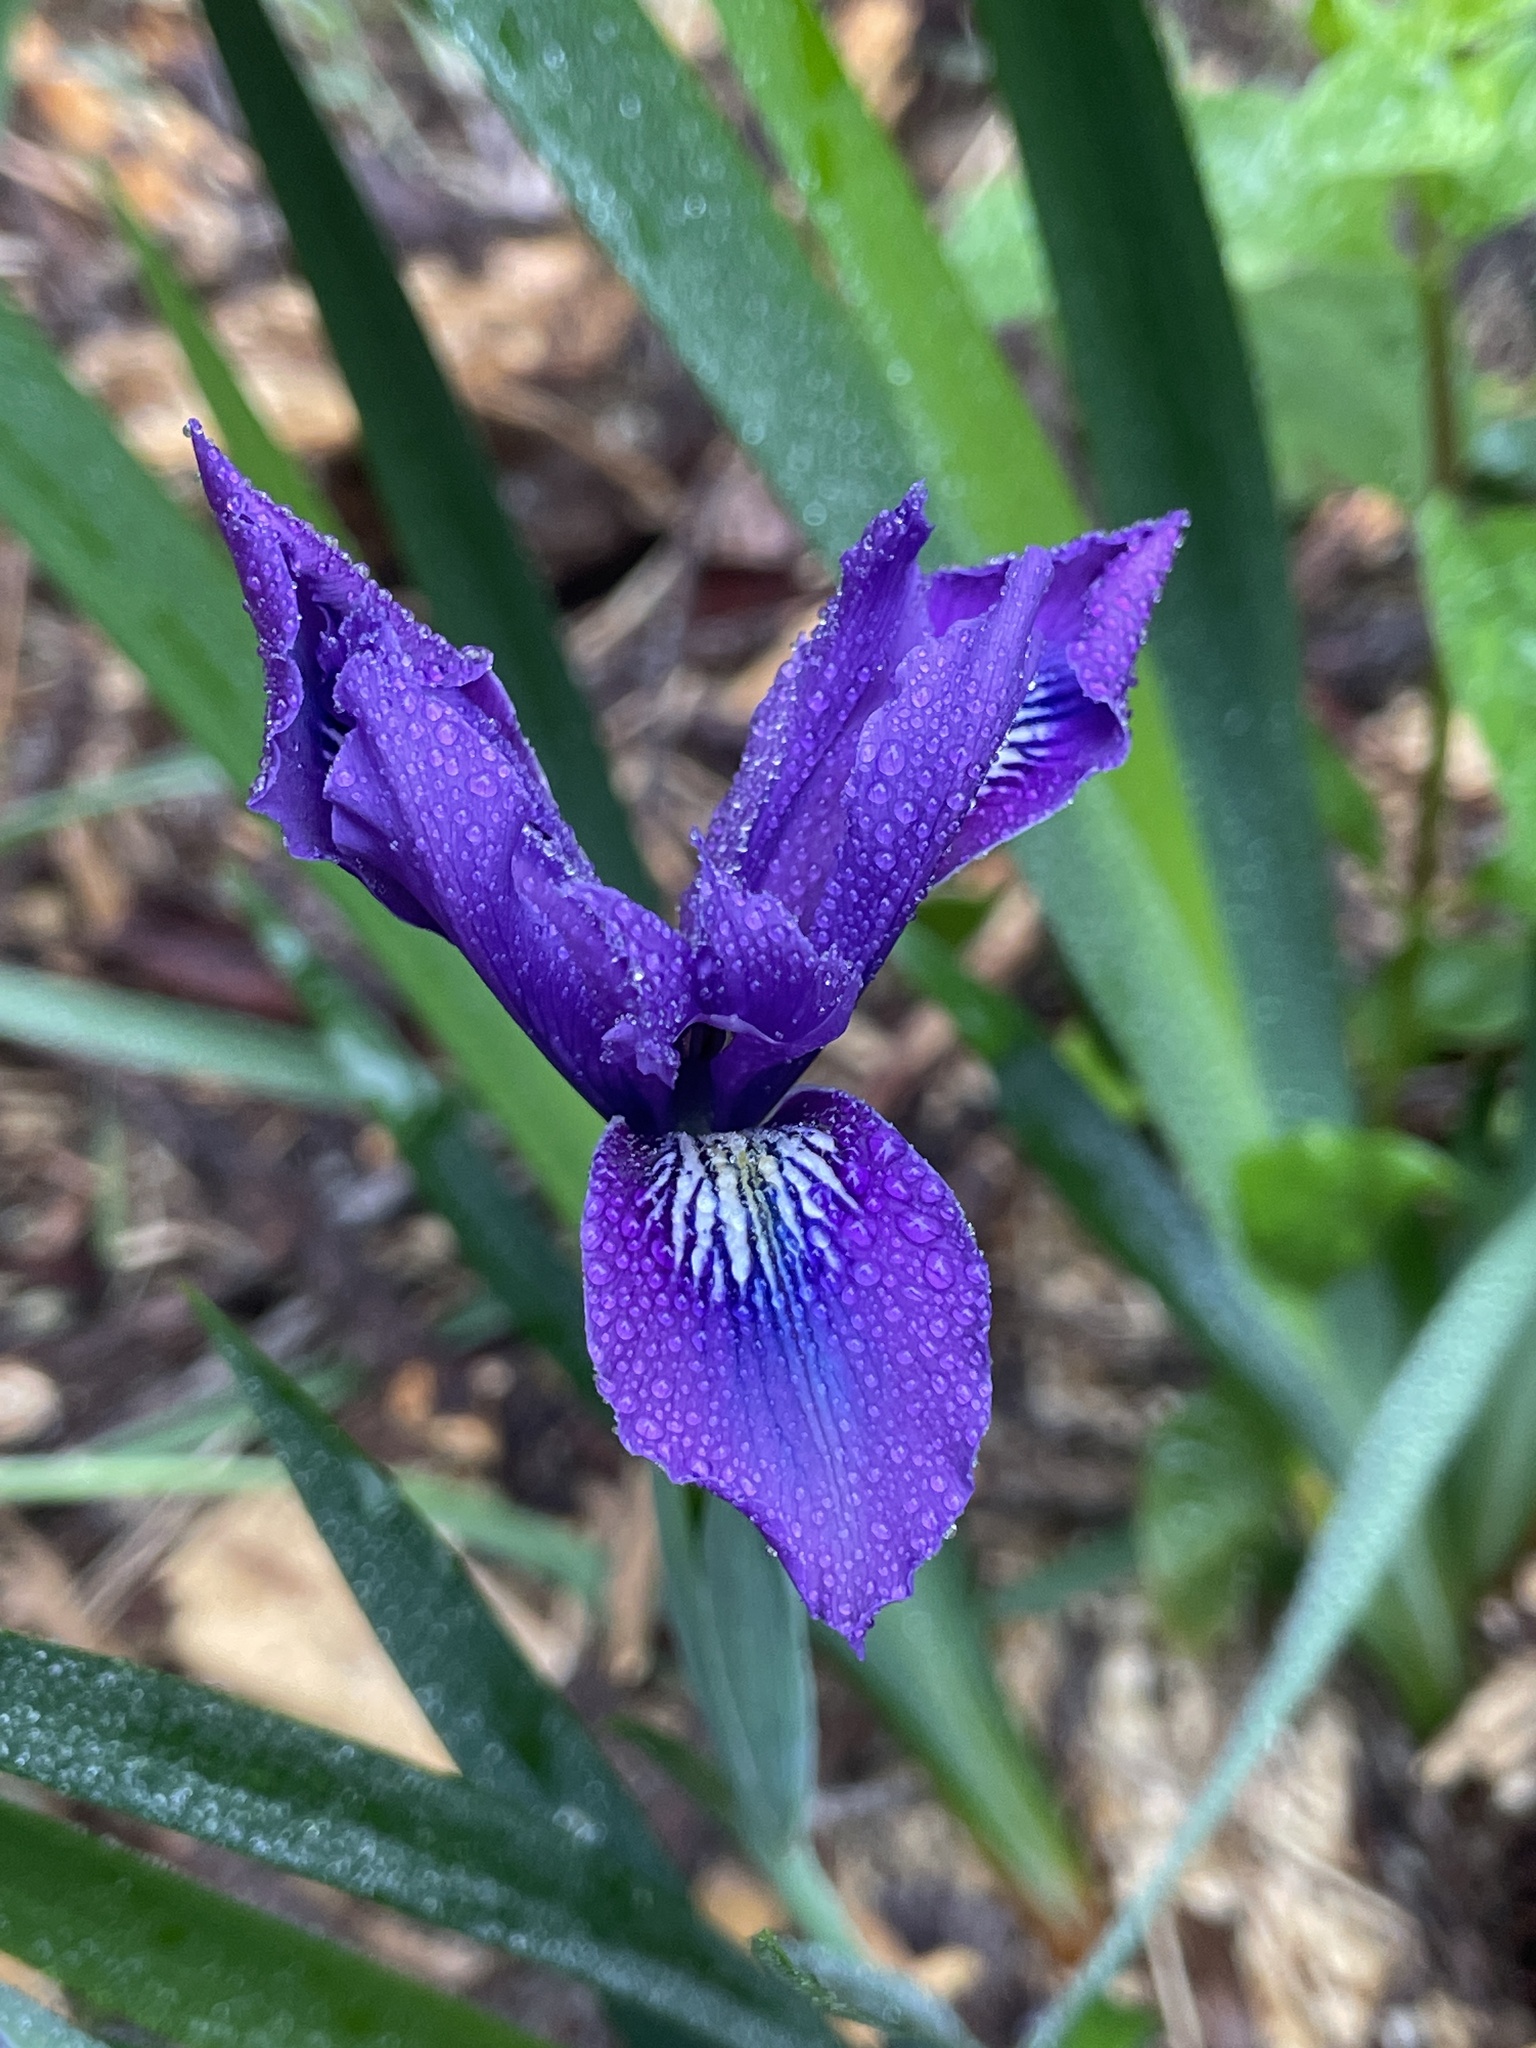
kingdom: Plantae
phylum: Tracheophyta
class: Liliopsida
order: Asparagales
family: Iridaceae
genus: Iris
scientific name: Iris douglasiana
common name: Marin iris
